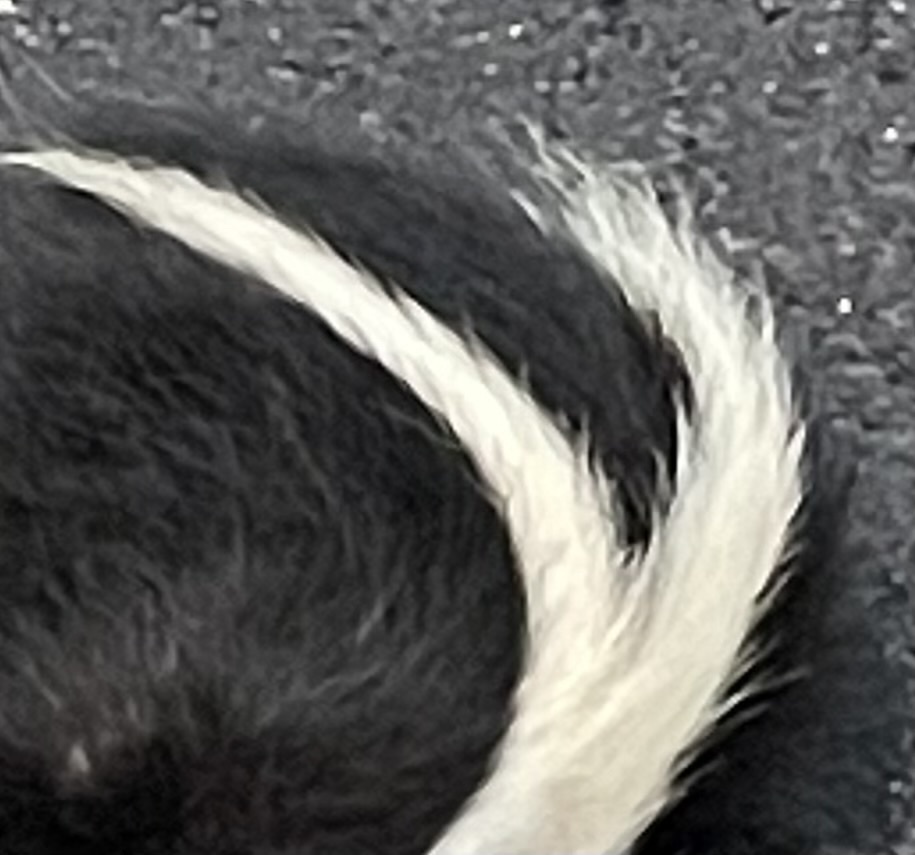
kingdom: Animalia
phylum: Chordata
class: Mammalia
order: Carnivora
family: Mephitidae
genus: Mephitis
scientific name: Mephitis mephitis
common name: Striped skunk
